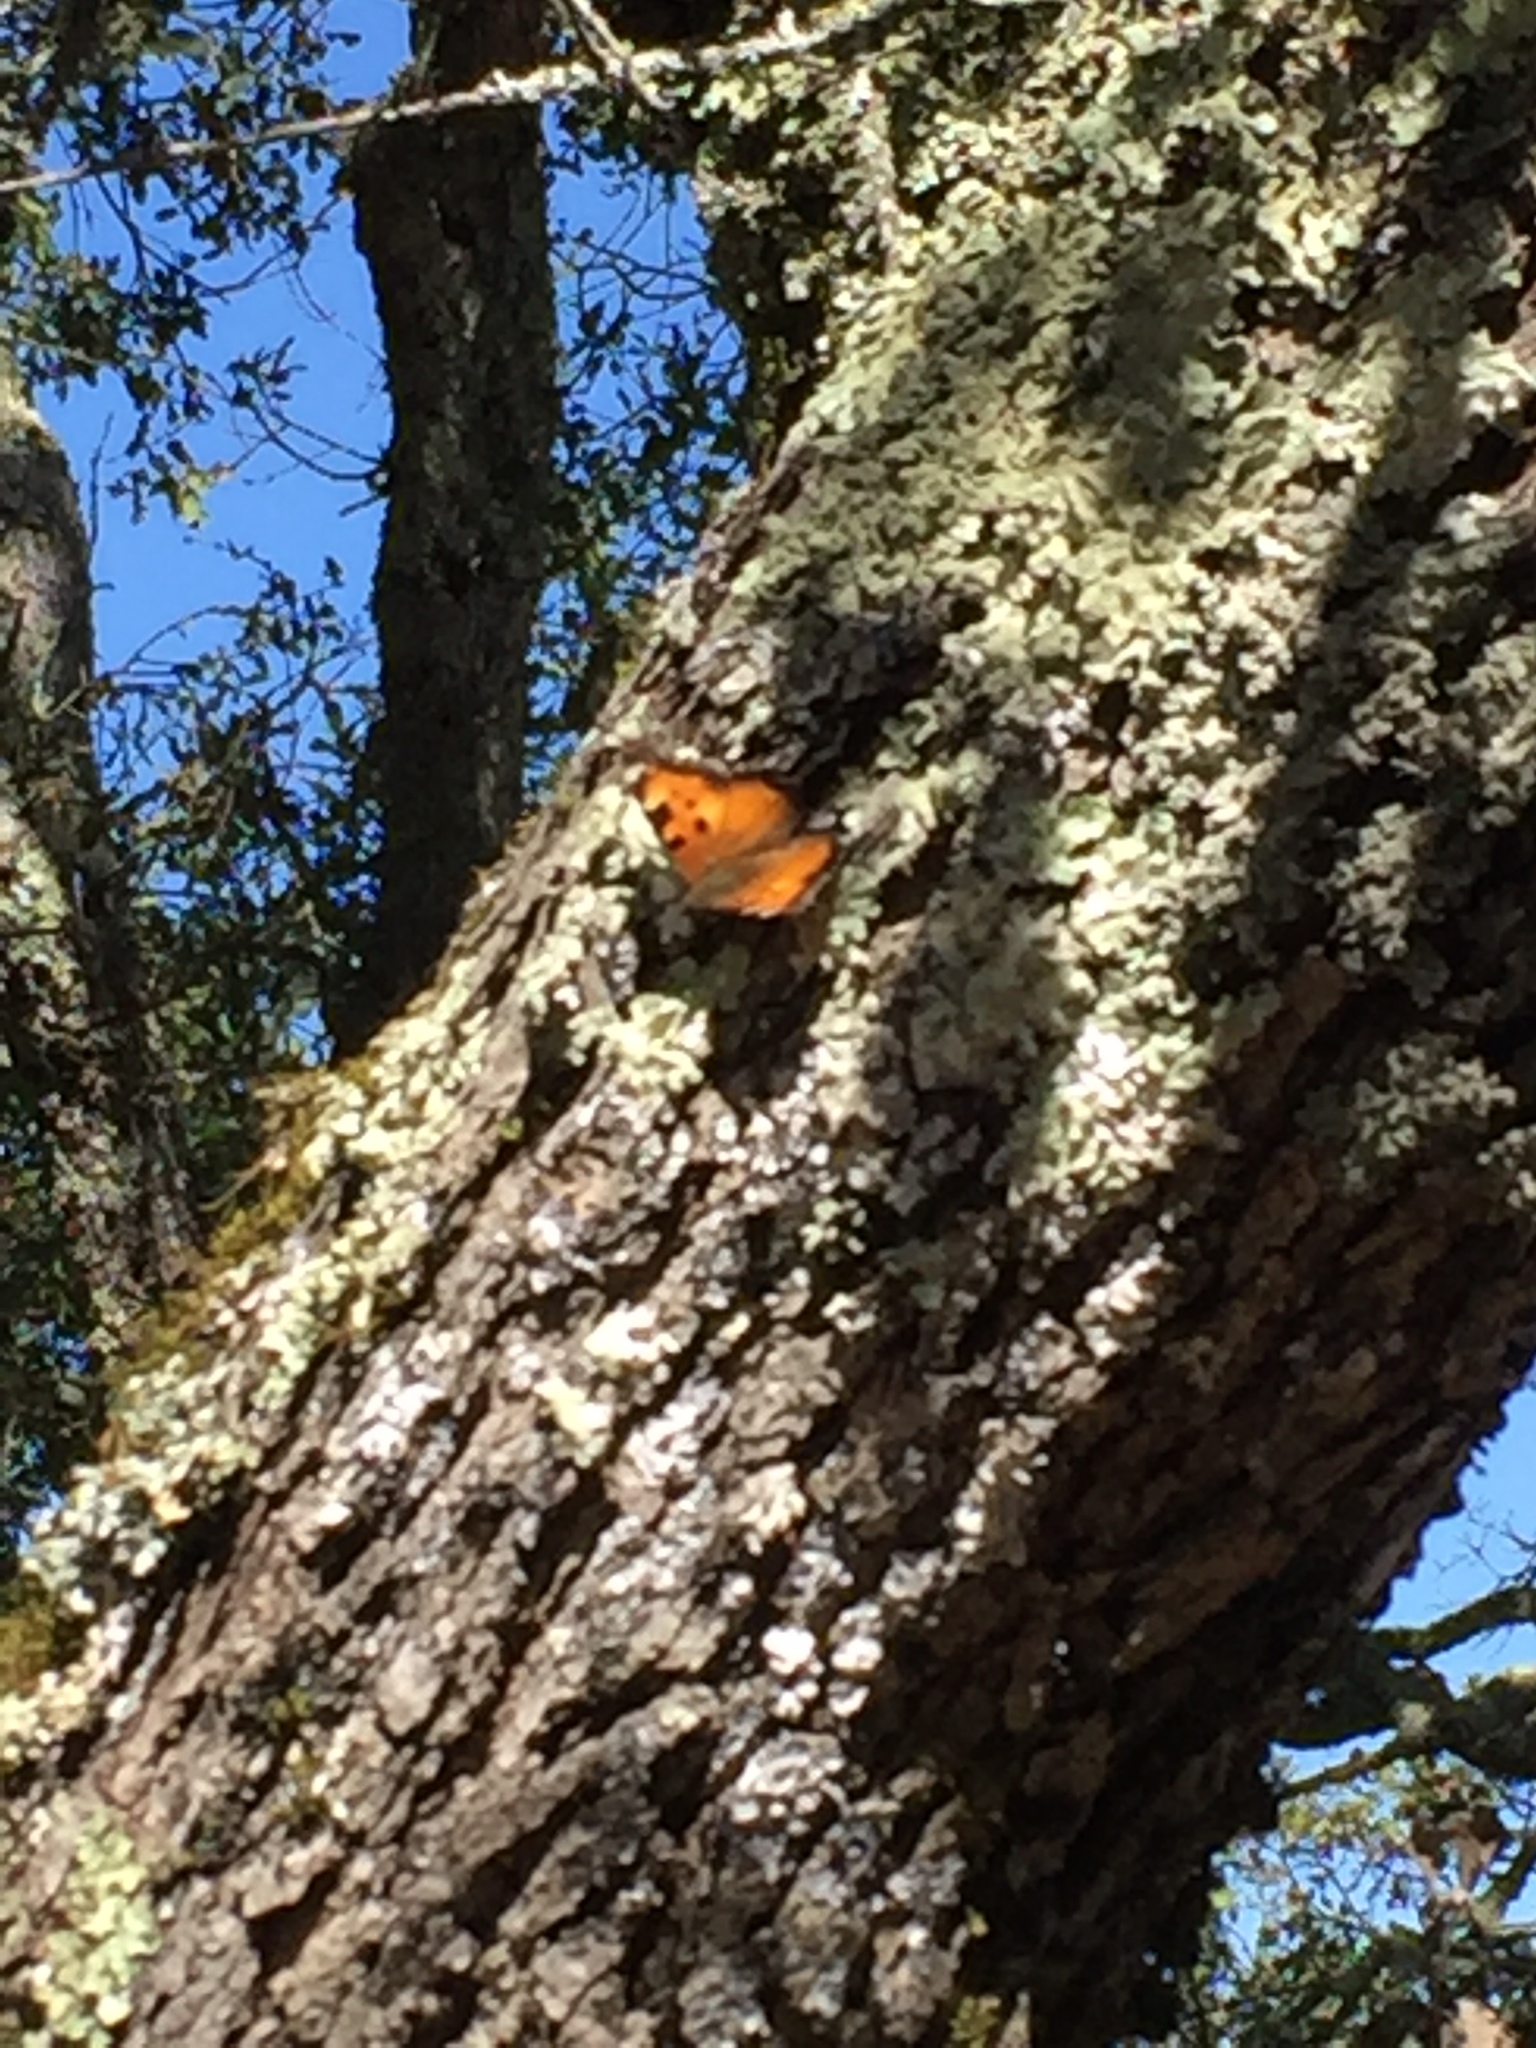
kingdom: Animalia
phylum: Arthropoda
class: Insecta
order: Lepidoptera
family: Nymphalidae
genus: Nymphalis
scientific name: Nymphalis californica
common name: California tortoiseshell
